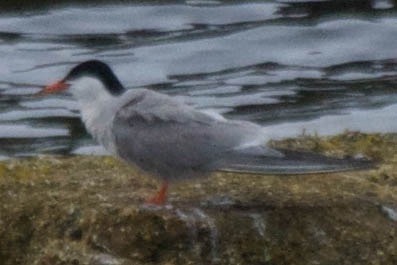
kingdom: Animalia
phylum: Chordata
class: Aves
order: Charadriiformes
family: Laridae
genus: Sterna
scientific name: Sterna hirundo
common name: Common tern
